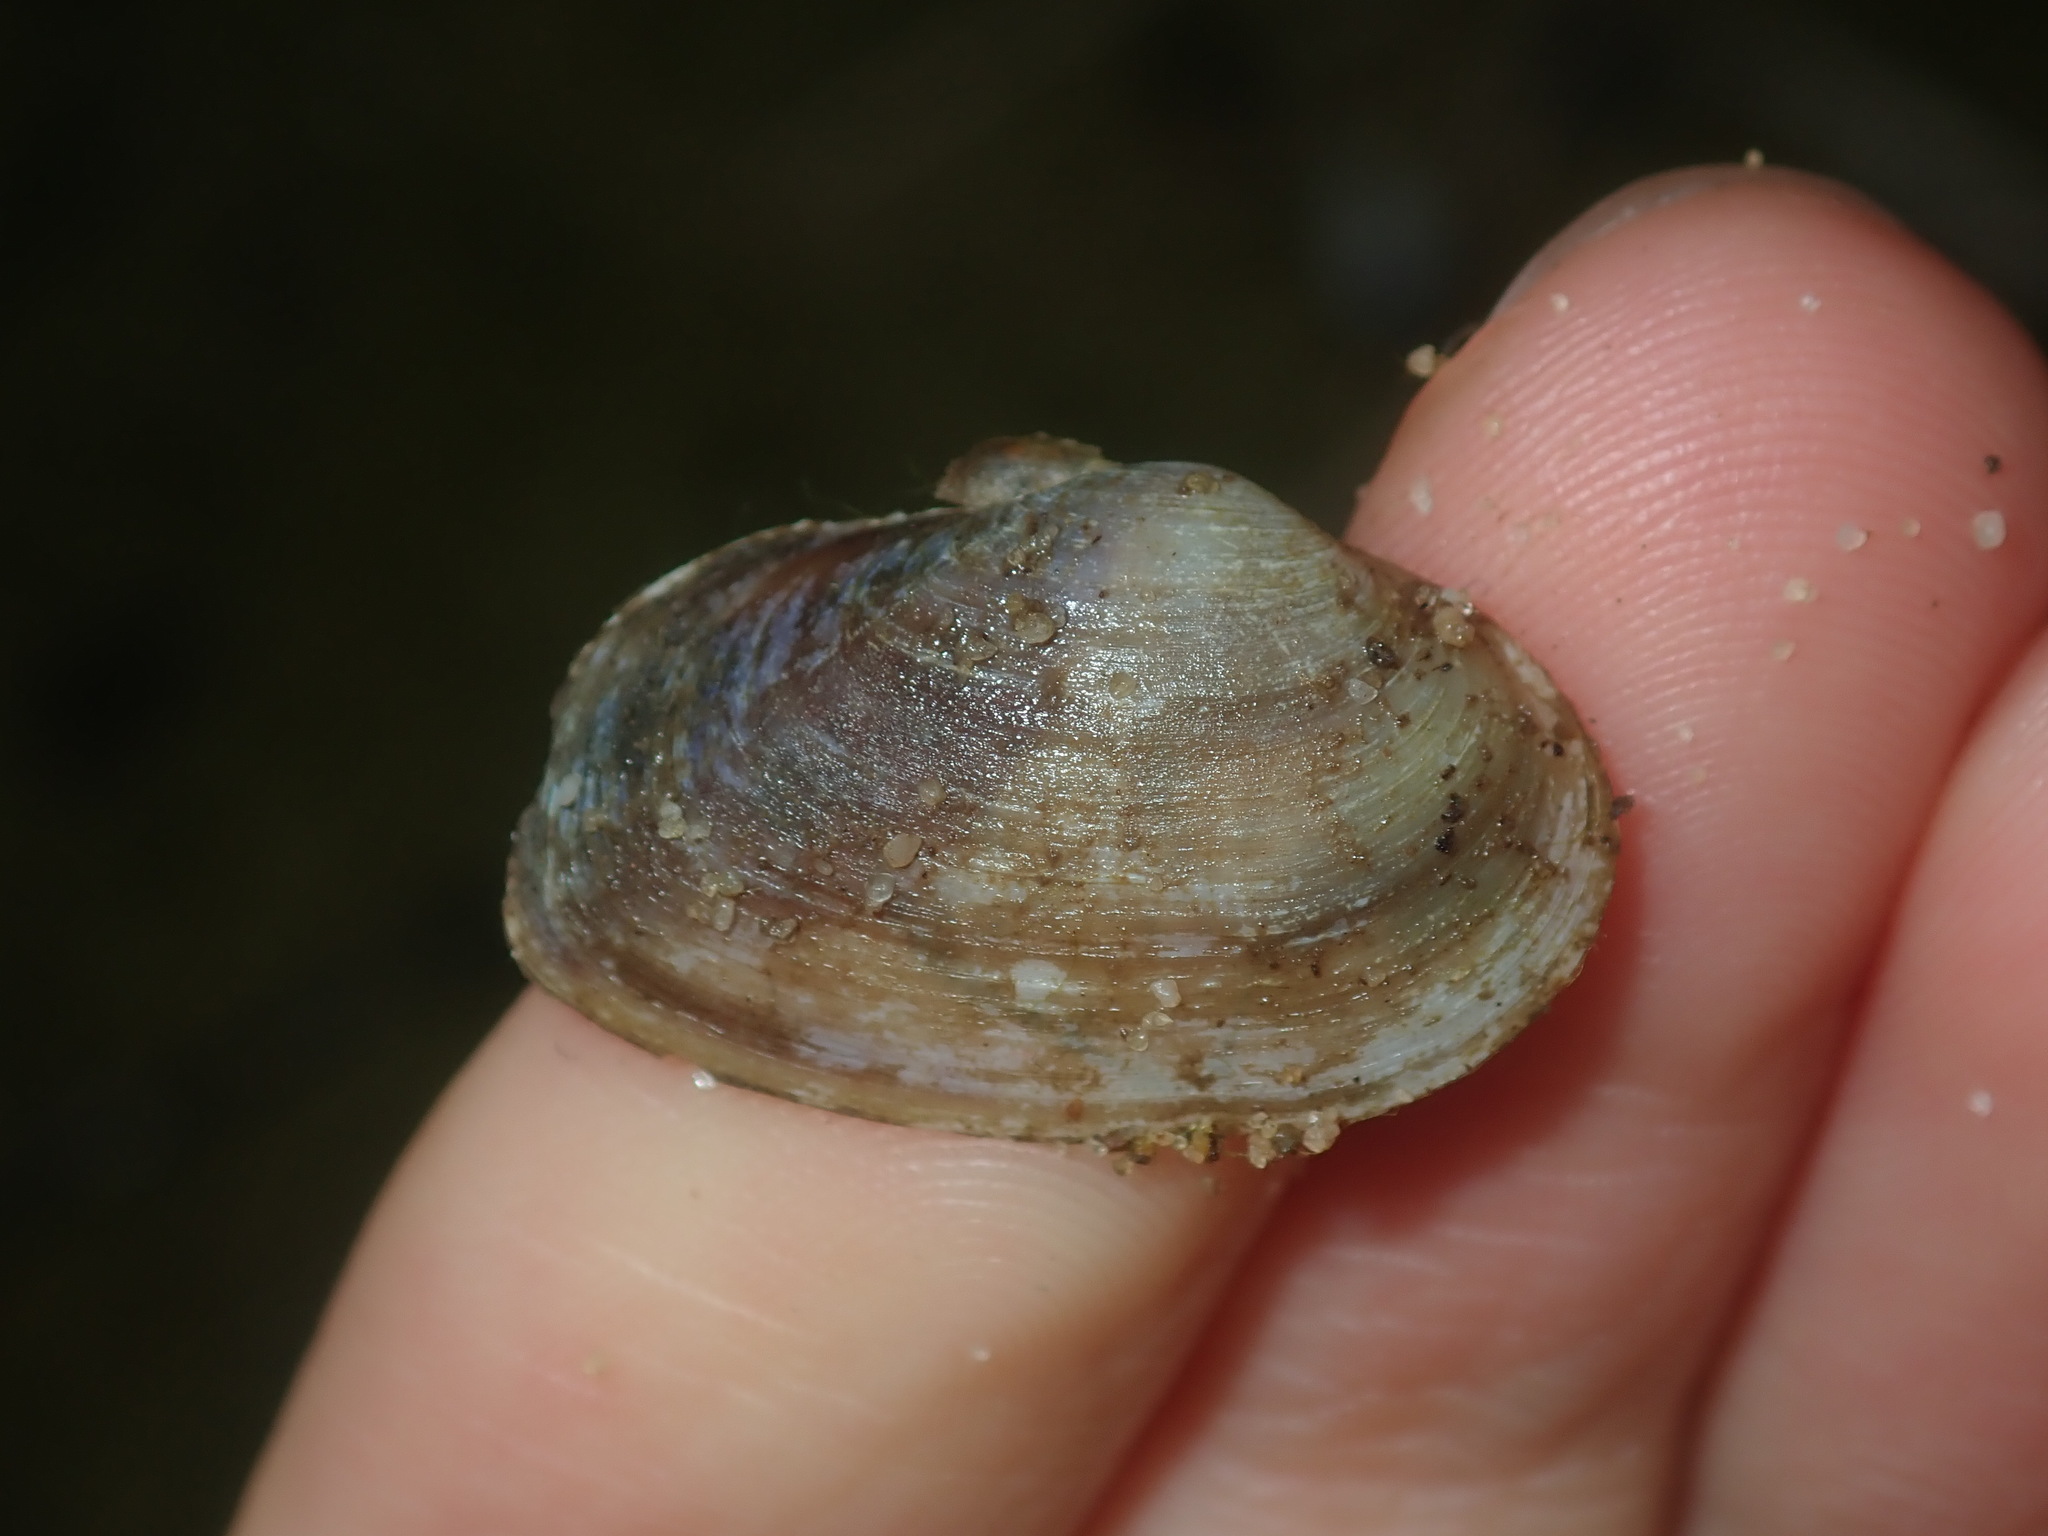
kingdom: Animalia
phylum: Mollusca
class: Bivalvia
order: Venerida
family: Glauconomidae
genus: Glauconome
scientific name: Glauconome radiata
